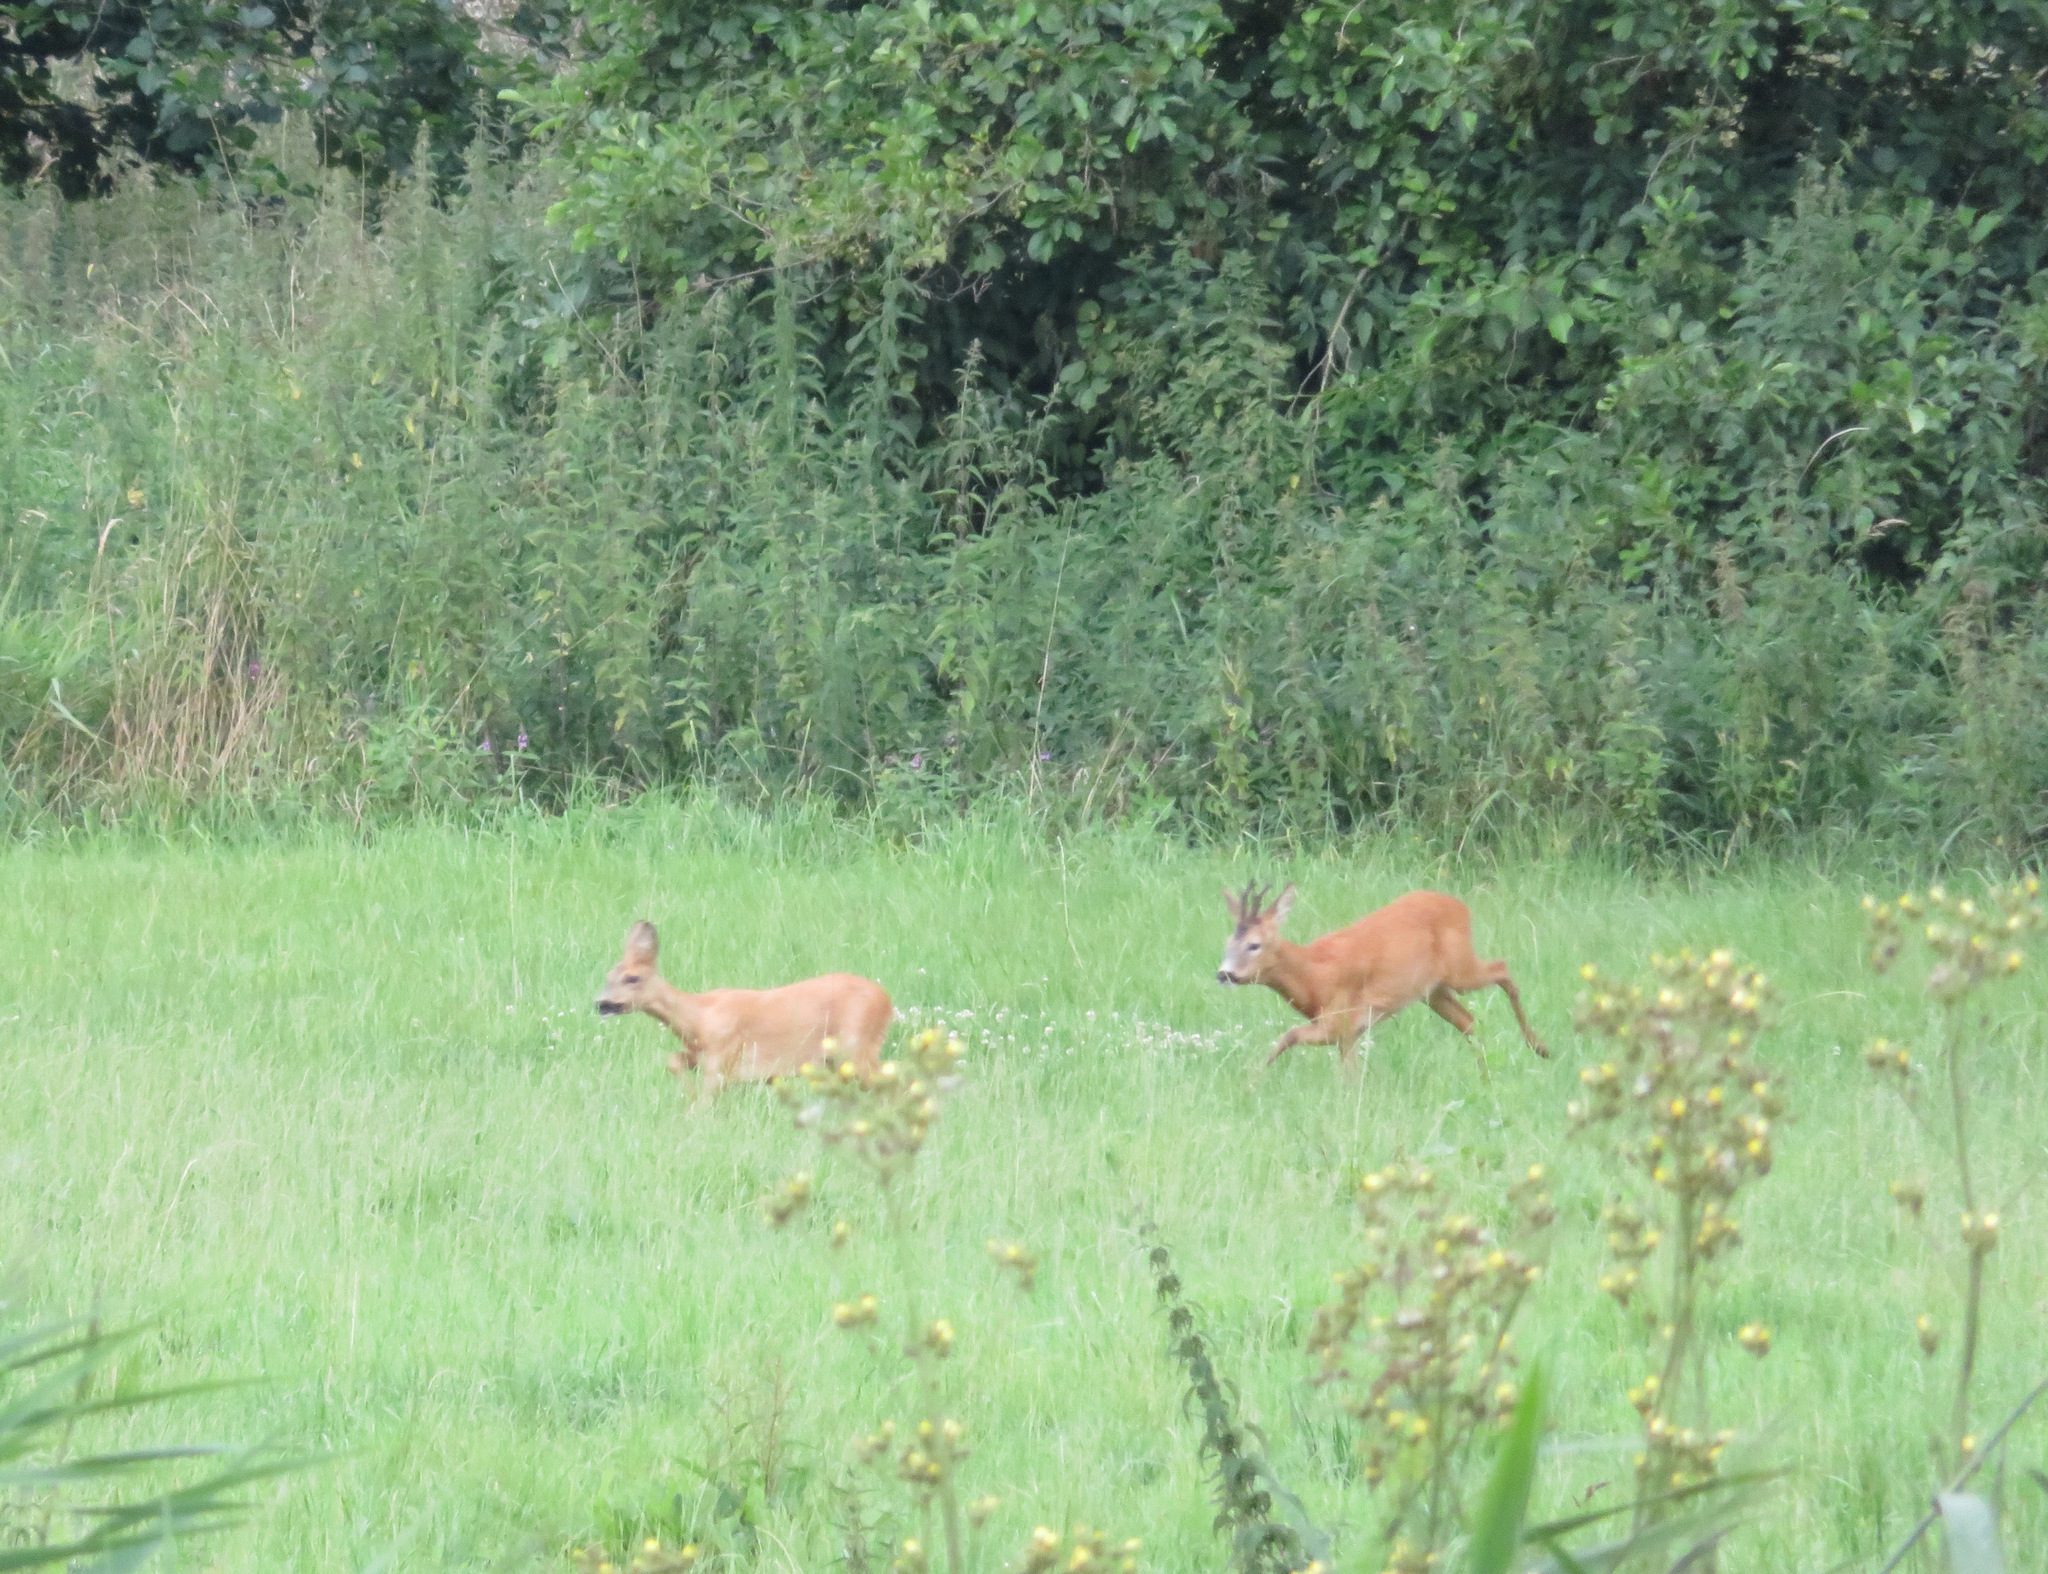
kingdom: Animalia
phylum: Chordata
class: Mammalia
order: Artiodactyla
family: Cervidae
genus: Capreolus
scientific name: Capreolus capreolus
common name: Western roe deer
